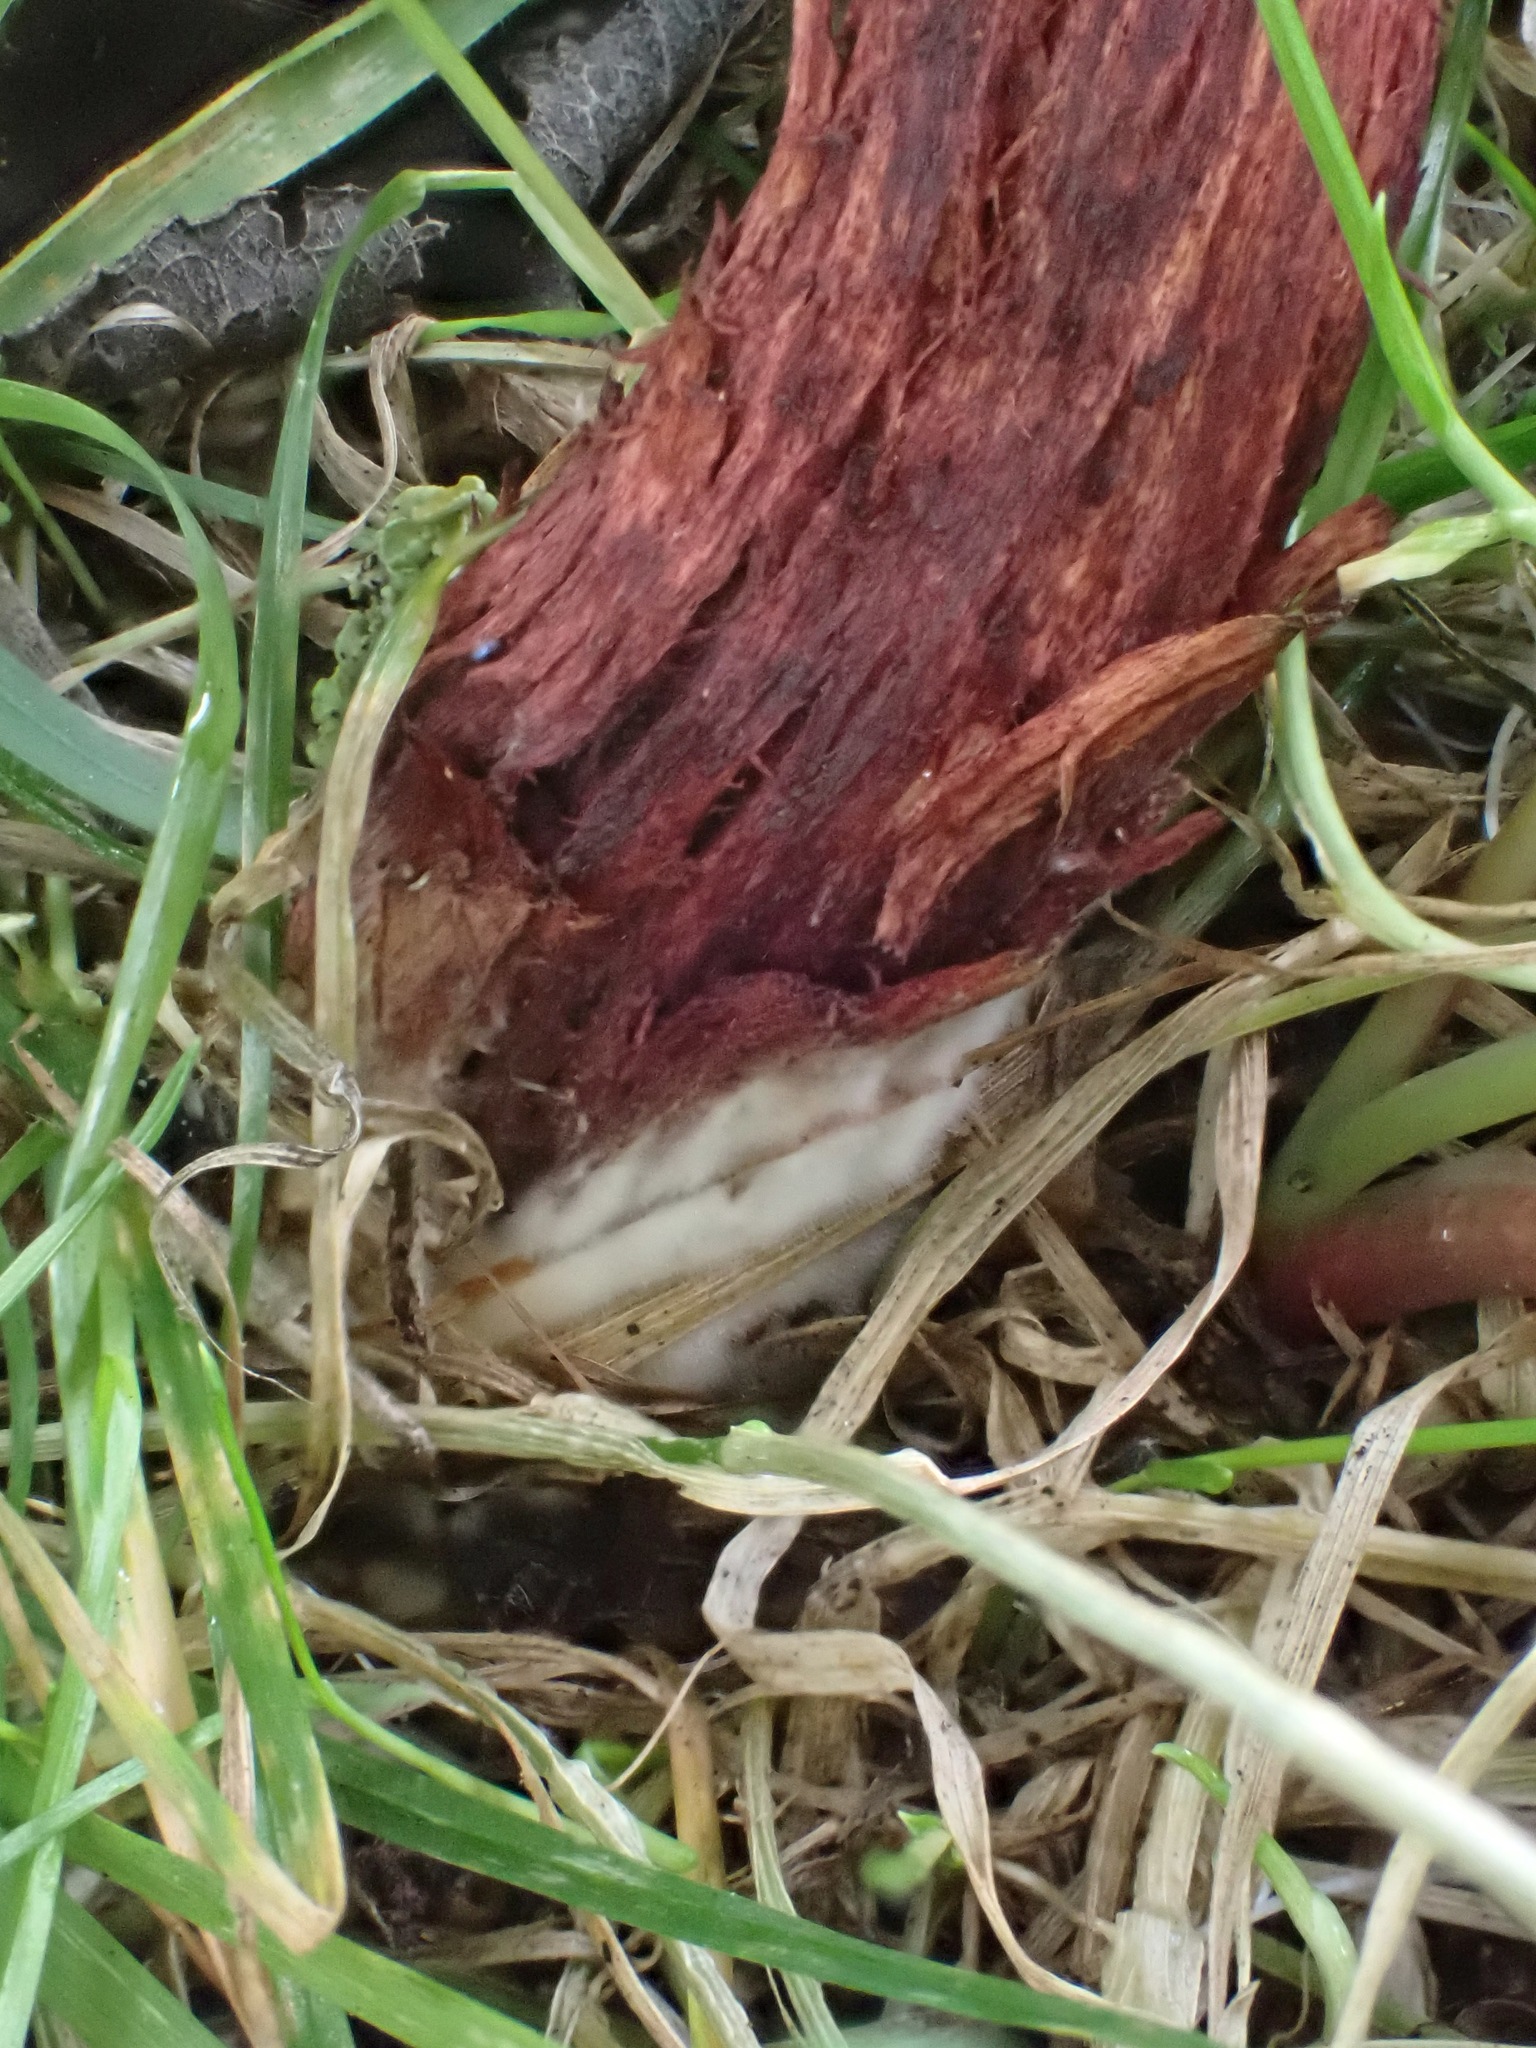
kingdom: Fungi
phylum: Basidiomycota
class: Agaricomycetes
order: Boletales
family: Boletaceae
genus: Xerocomellus
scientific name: Xerocomellus chrysenteron
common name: Red-cracking bolete
